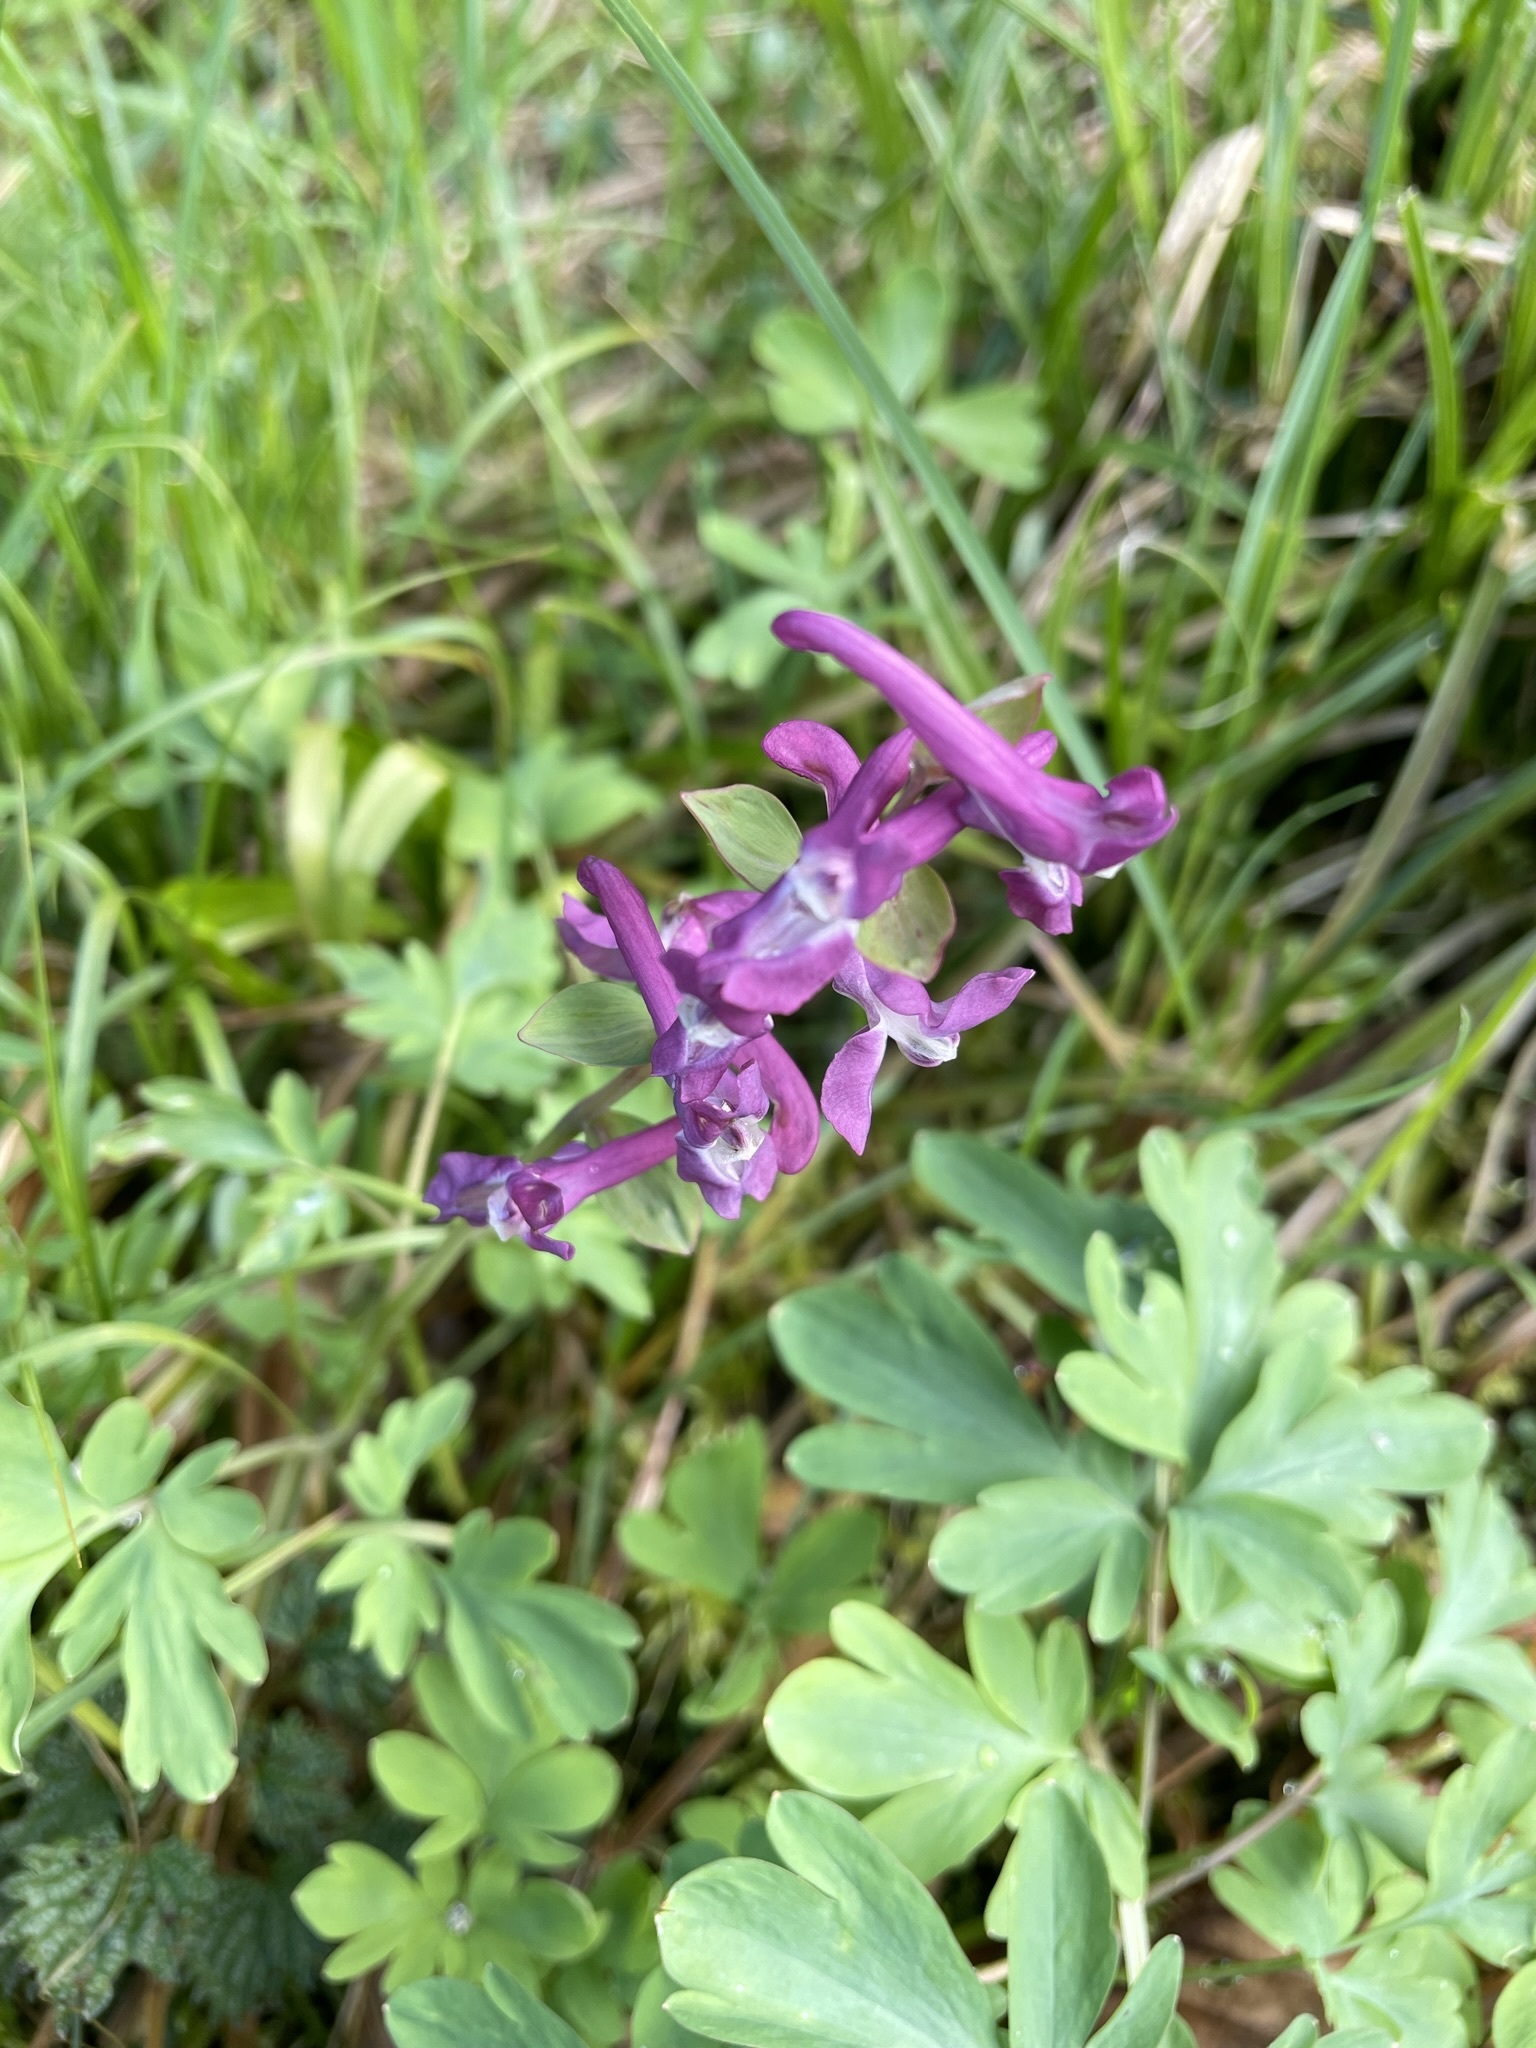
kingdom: Plantae
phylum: Tracheophyta
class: Magnoliopsida
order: Ranunculales
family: Papaveraceae
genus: Corydalis
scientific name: Corydalis cava
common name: Hollowroot
